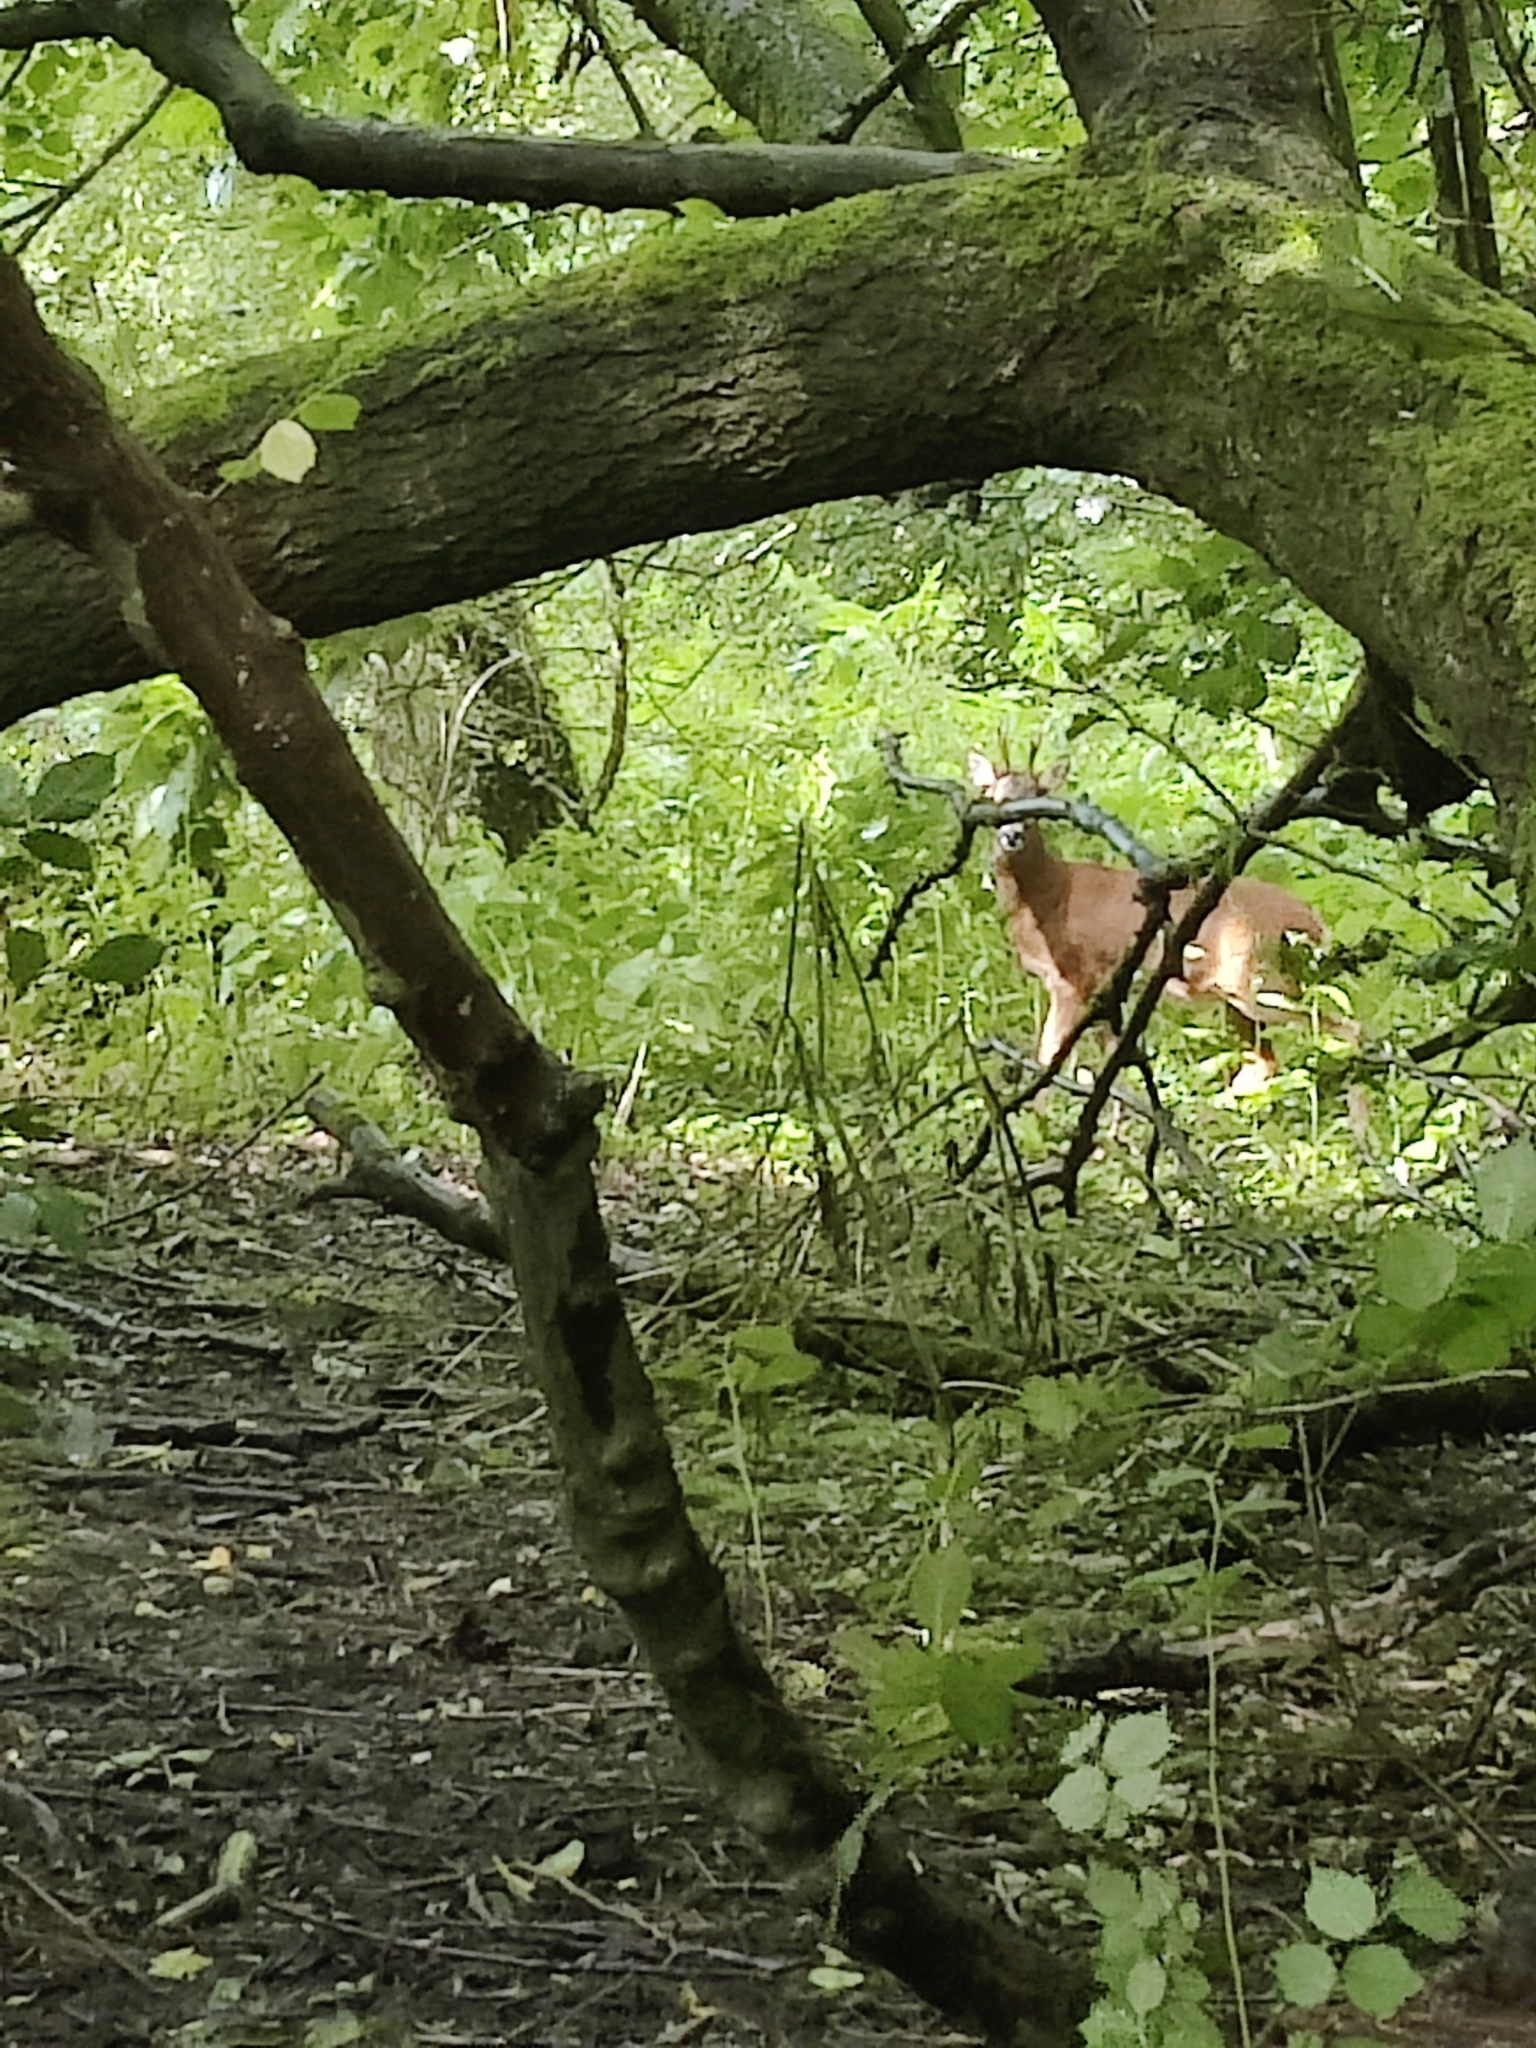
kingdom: Animalia
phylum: Chordata
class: Mammalia
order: Artiodactyla
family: Cervidae
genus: Capreolus
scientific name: Capreolus capreolus
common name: Western roe deer
